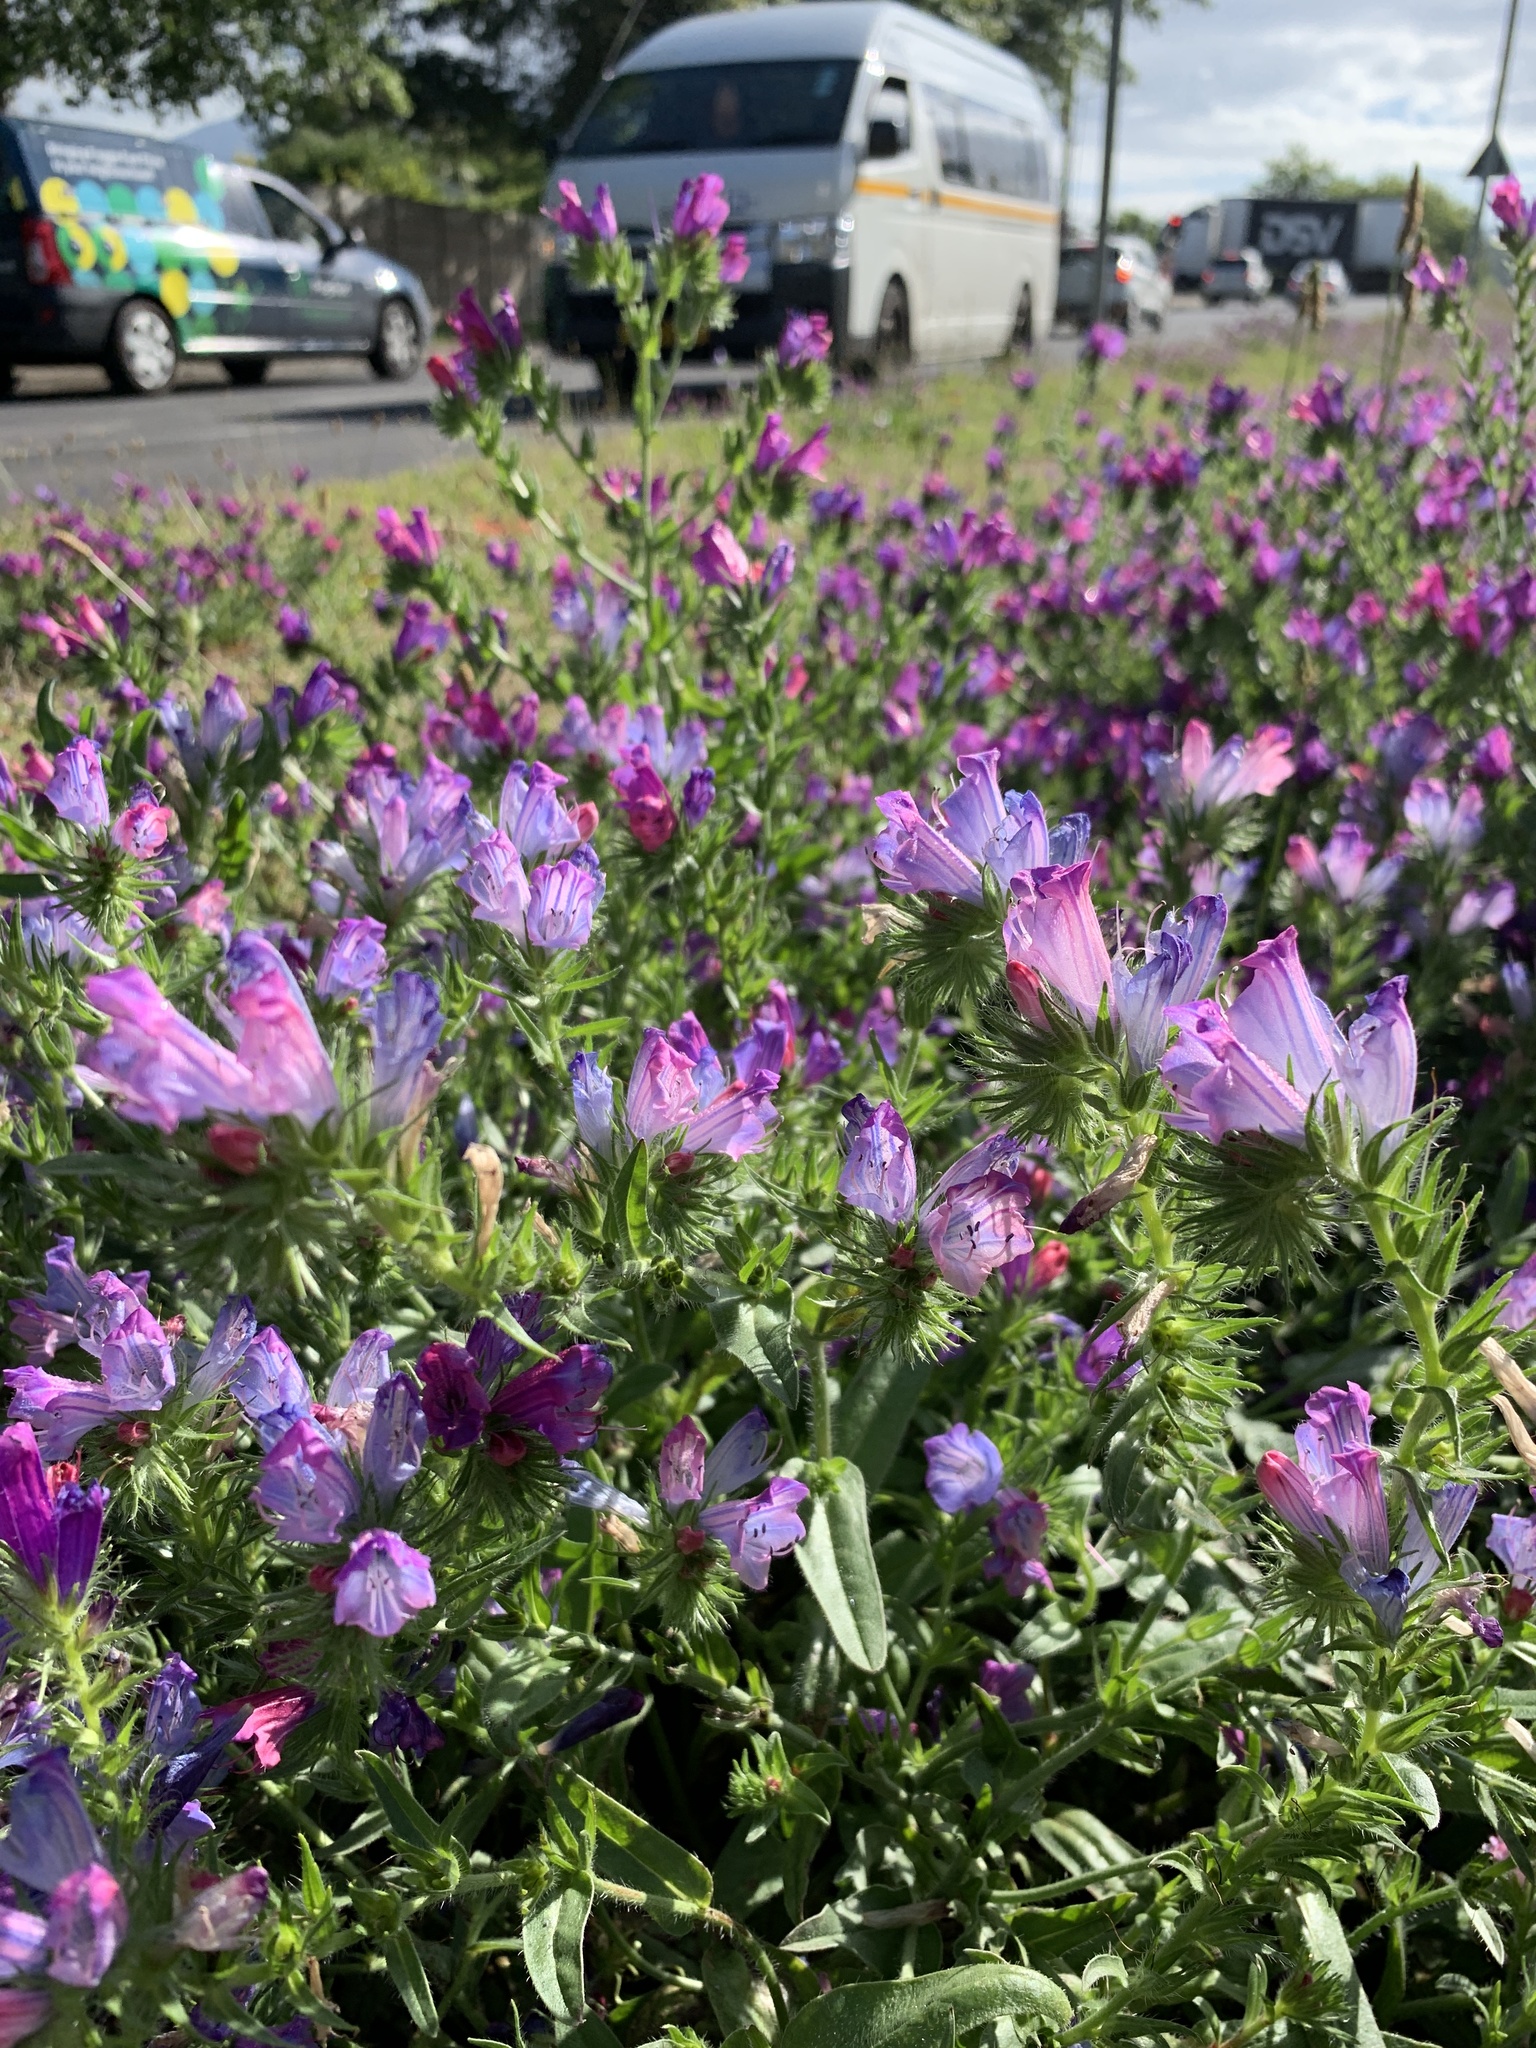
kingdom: Plantae
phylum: Tracheophyta
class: Magnoliopsida
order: Boraginales
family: Boraginaceae
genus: Echium
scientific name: Echium plantagineum
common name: Purple viper's-bugloss
